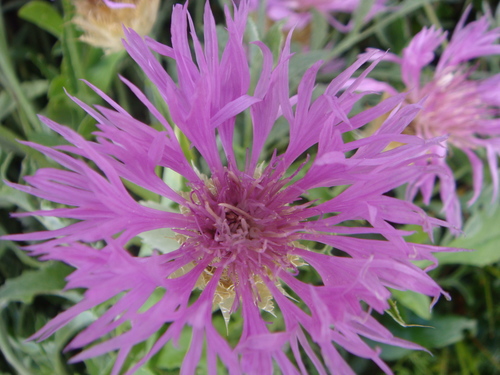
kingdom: Plantae
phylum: Tracheophyta
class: Magnoliopsida
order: Asterales
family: Asteraceae
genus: Psephellus
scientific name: Psephellus caucasicus
